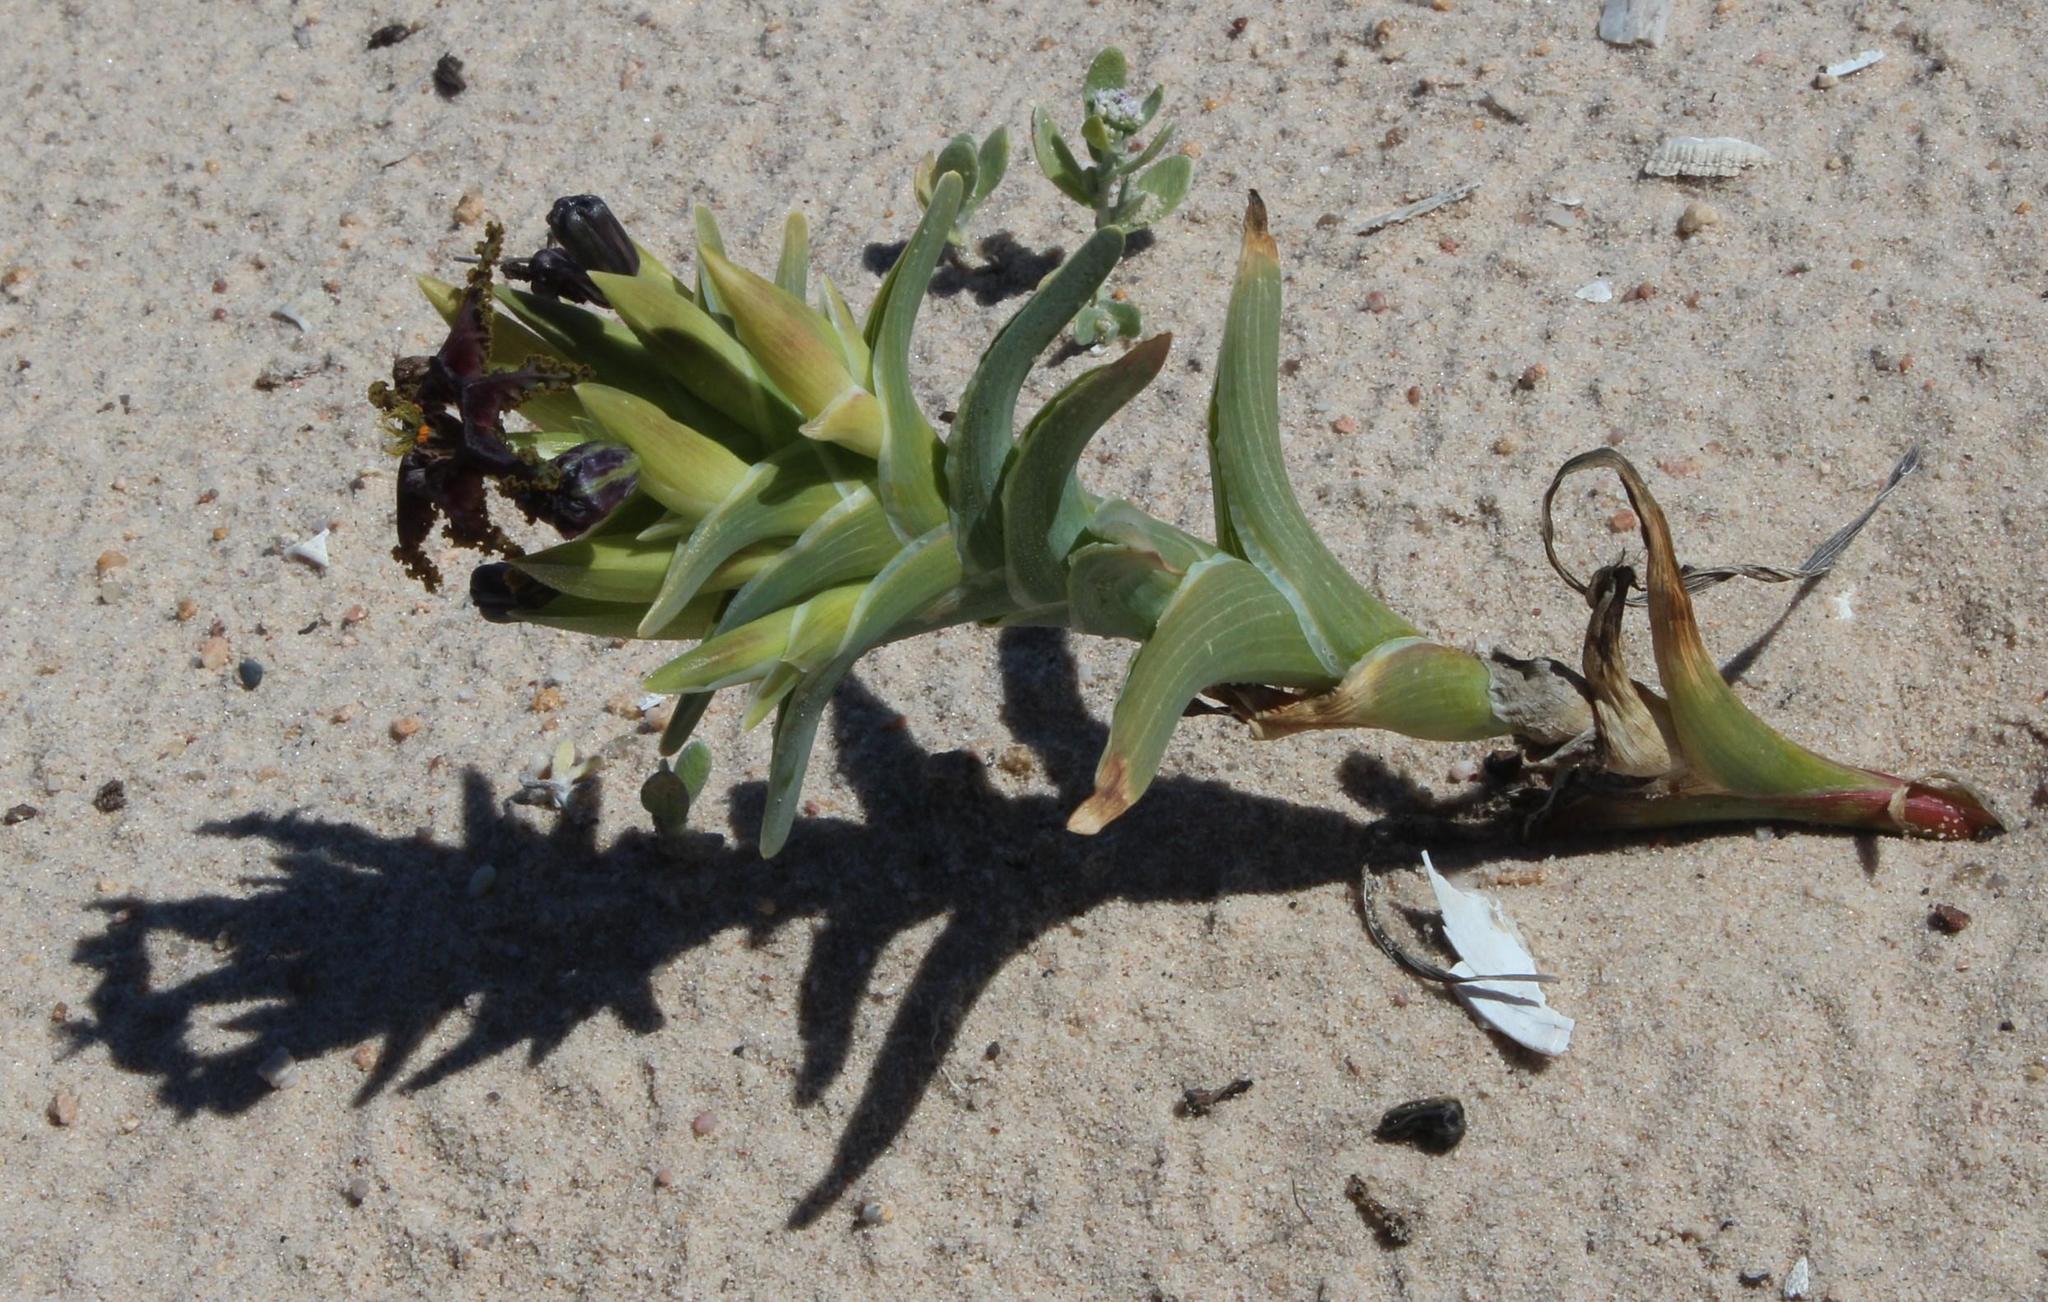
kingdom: Plantae
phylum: Tracheophyta
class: Liliopsida
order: Asparagales
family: Iridaceae
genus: Ferraria
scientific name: Ferraria foliosa
